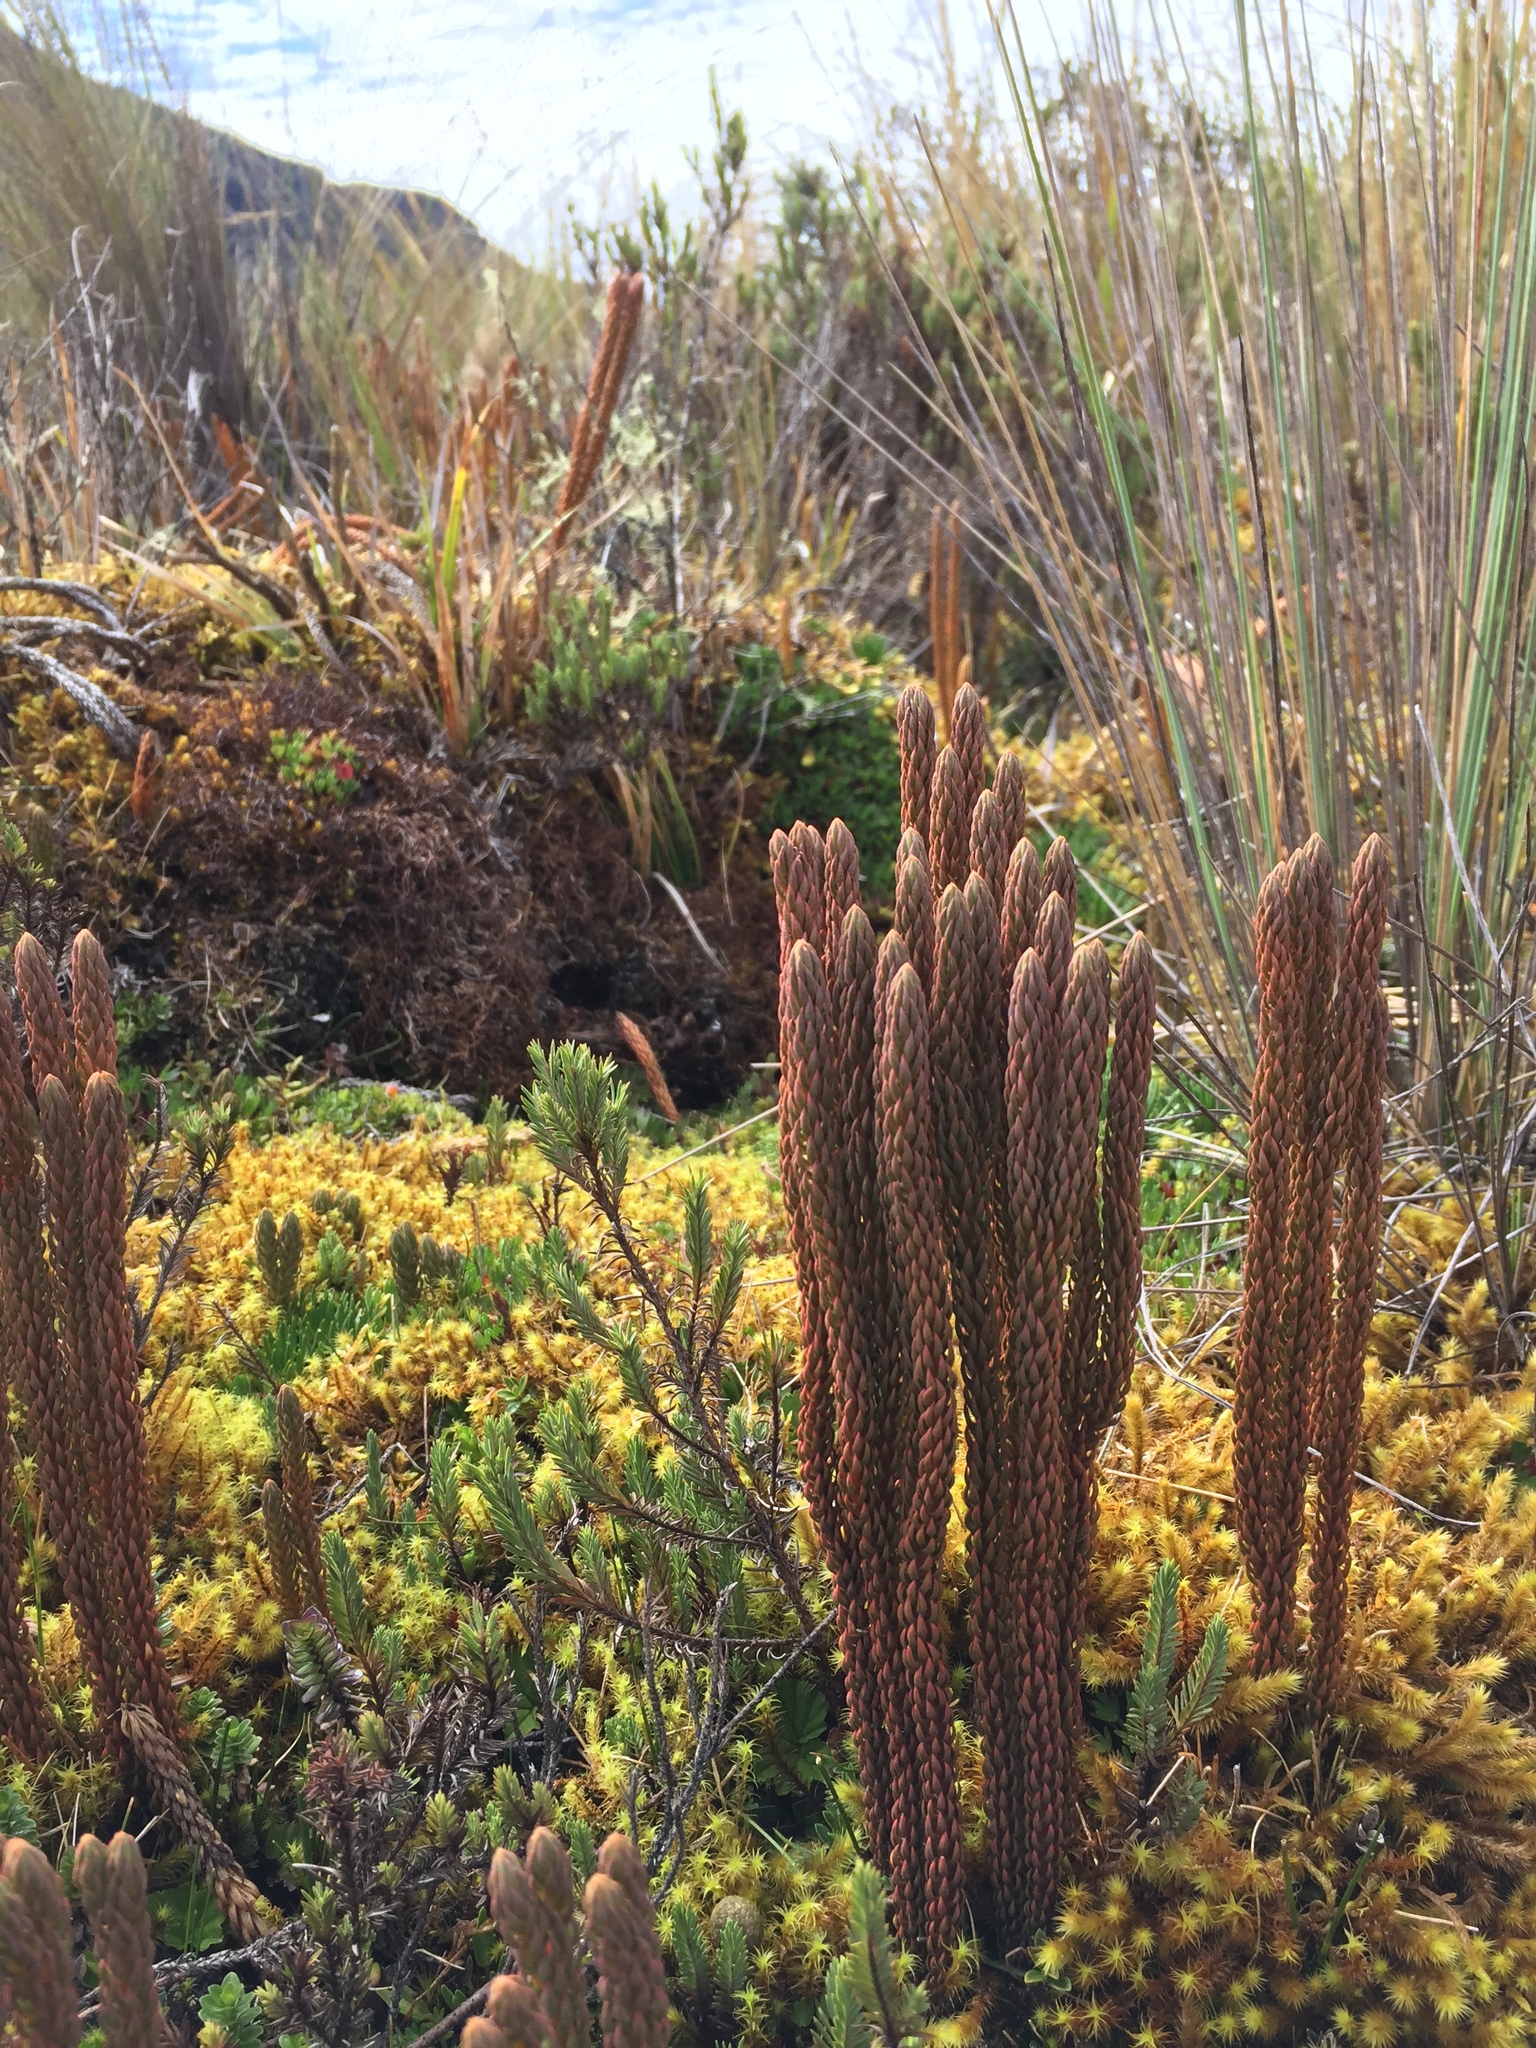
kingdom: Plantae
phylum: Tracheophyta
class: Lycopodiopsida
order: Lycopodiales
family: Lycopodiaceae
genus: Phlegmariurus
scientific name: Phlegmariurus crassus
